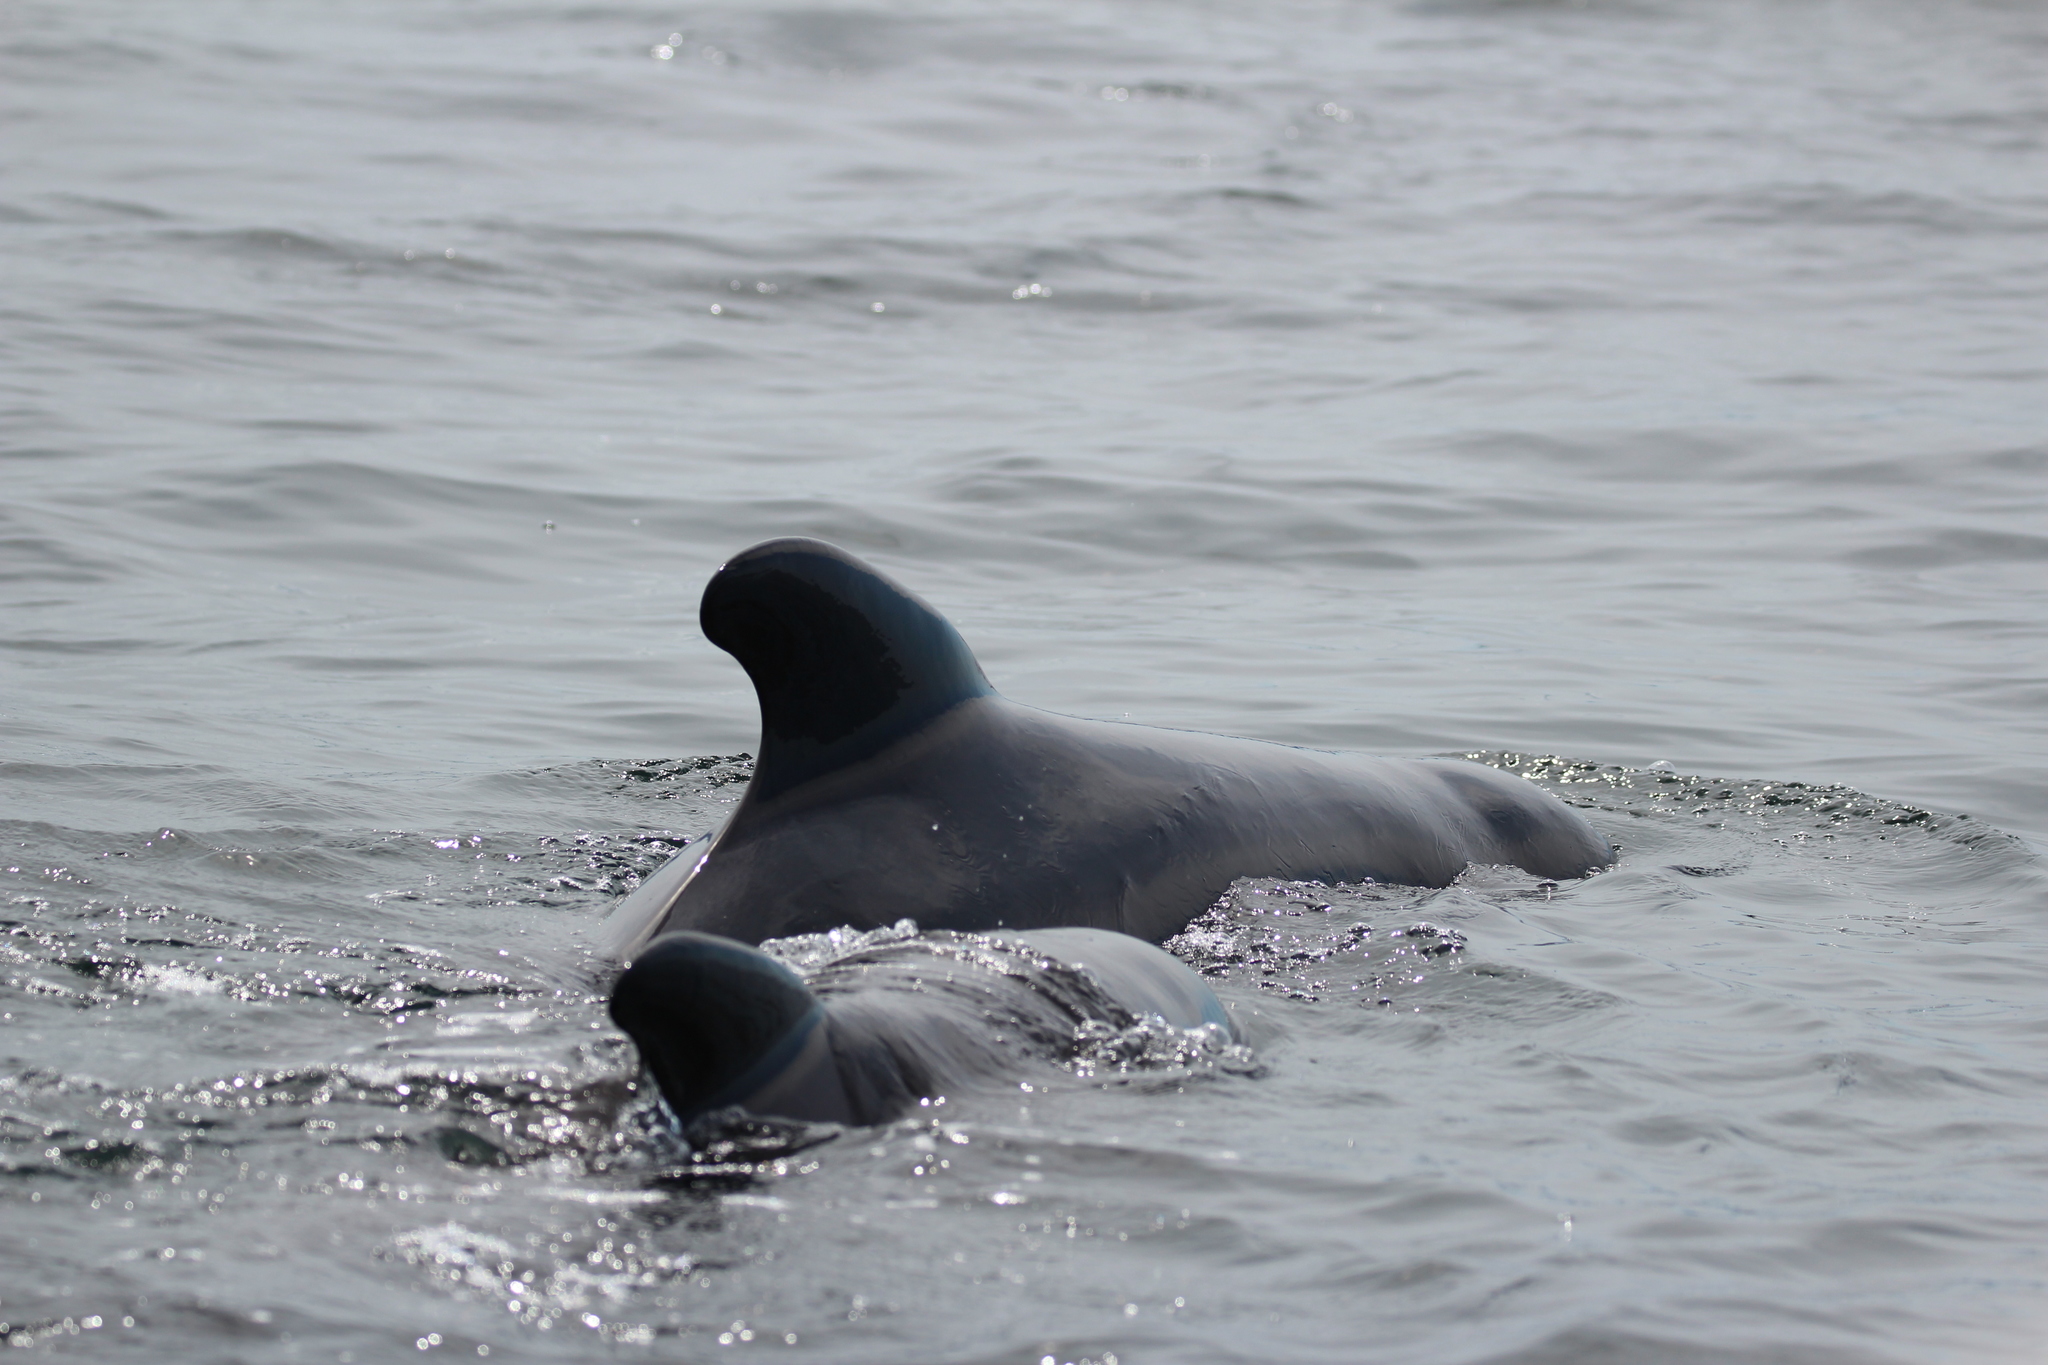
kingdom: Animalia
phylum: Chordata
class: Mammalia
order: Cetacea
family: Delphinidae
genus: Globicephala
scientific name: Globicephala melas
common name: Long-finned pilot whale
